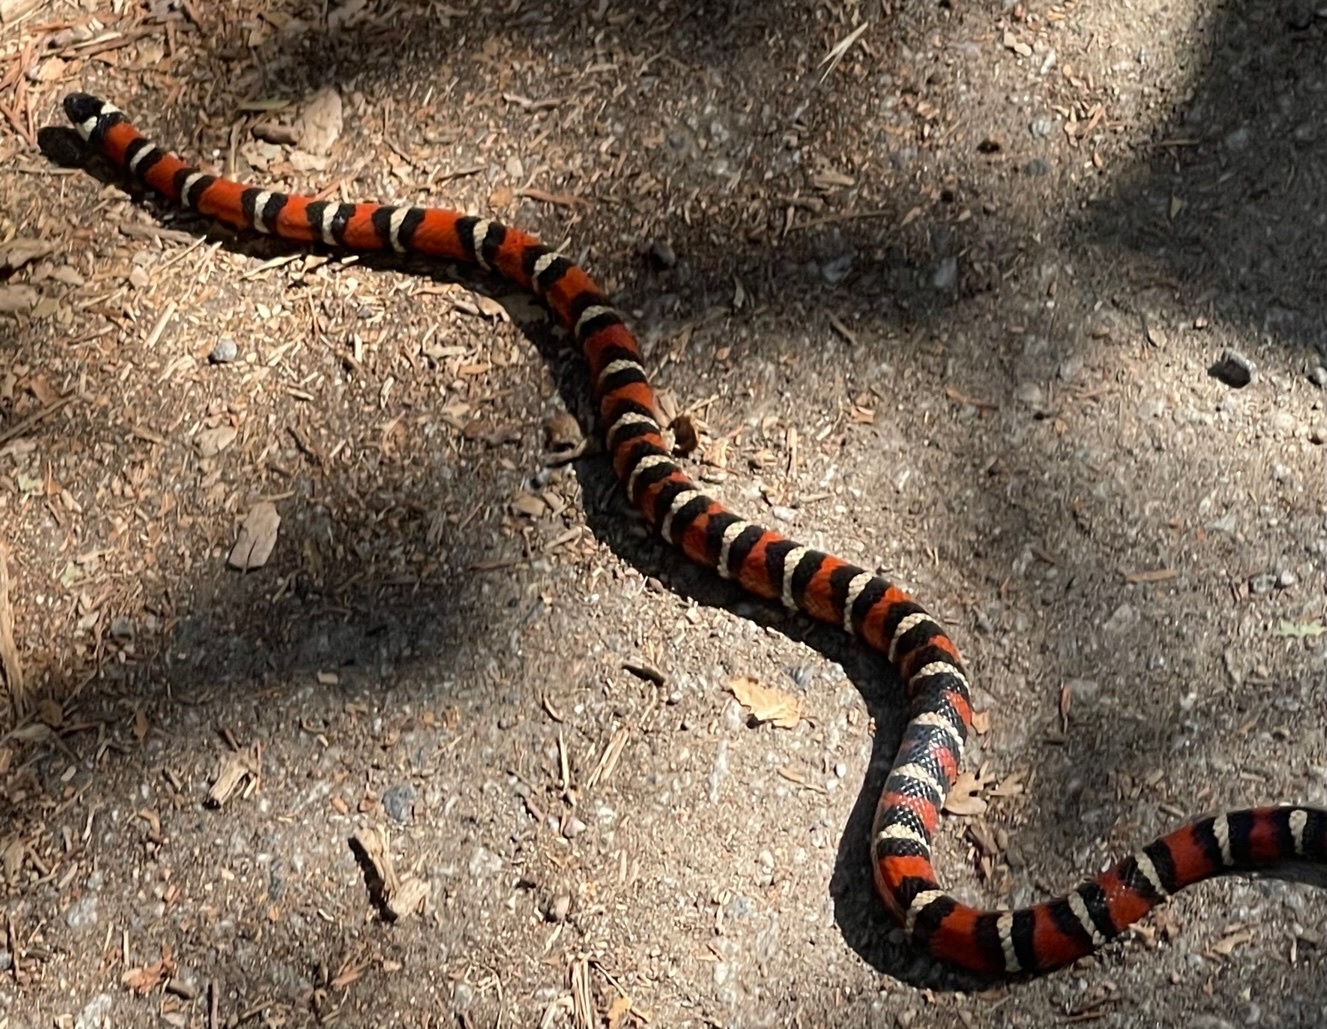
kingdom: Animalia
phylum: Chordata
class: Squamata
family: Colubridae
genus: Lampropeltis
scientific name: Lampropeltis zonata
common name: California mountain kingsnake
